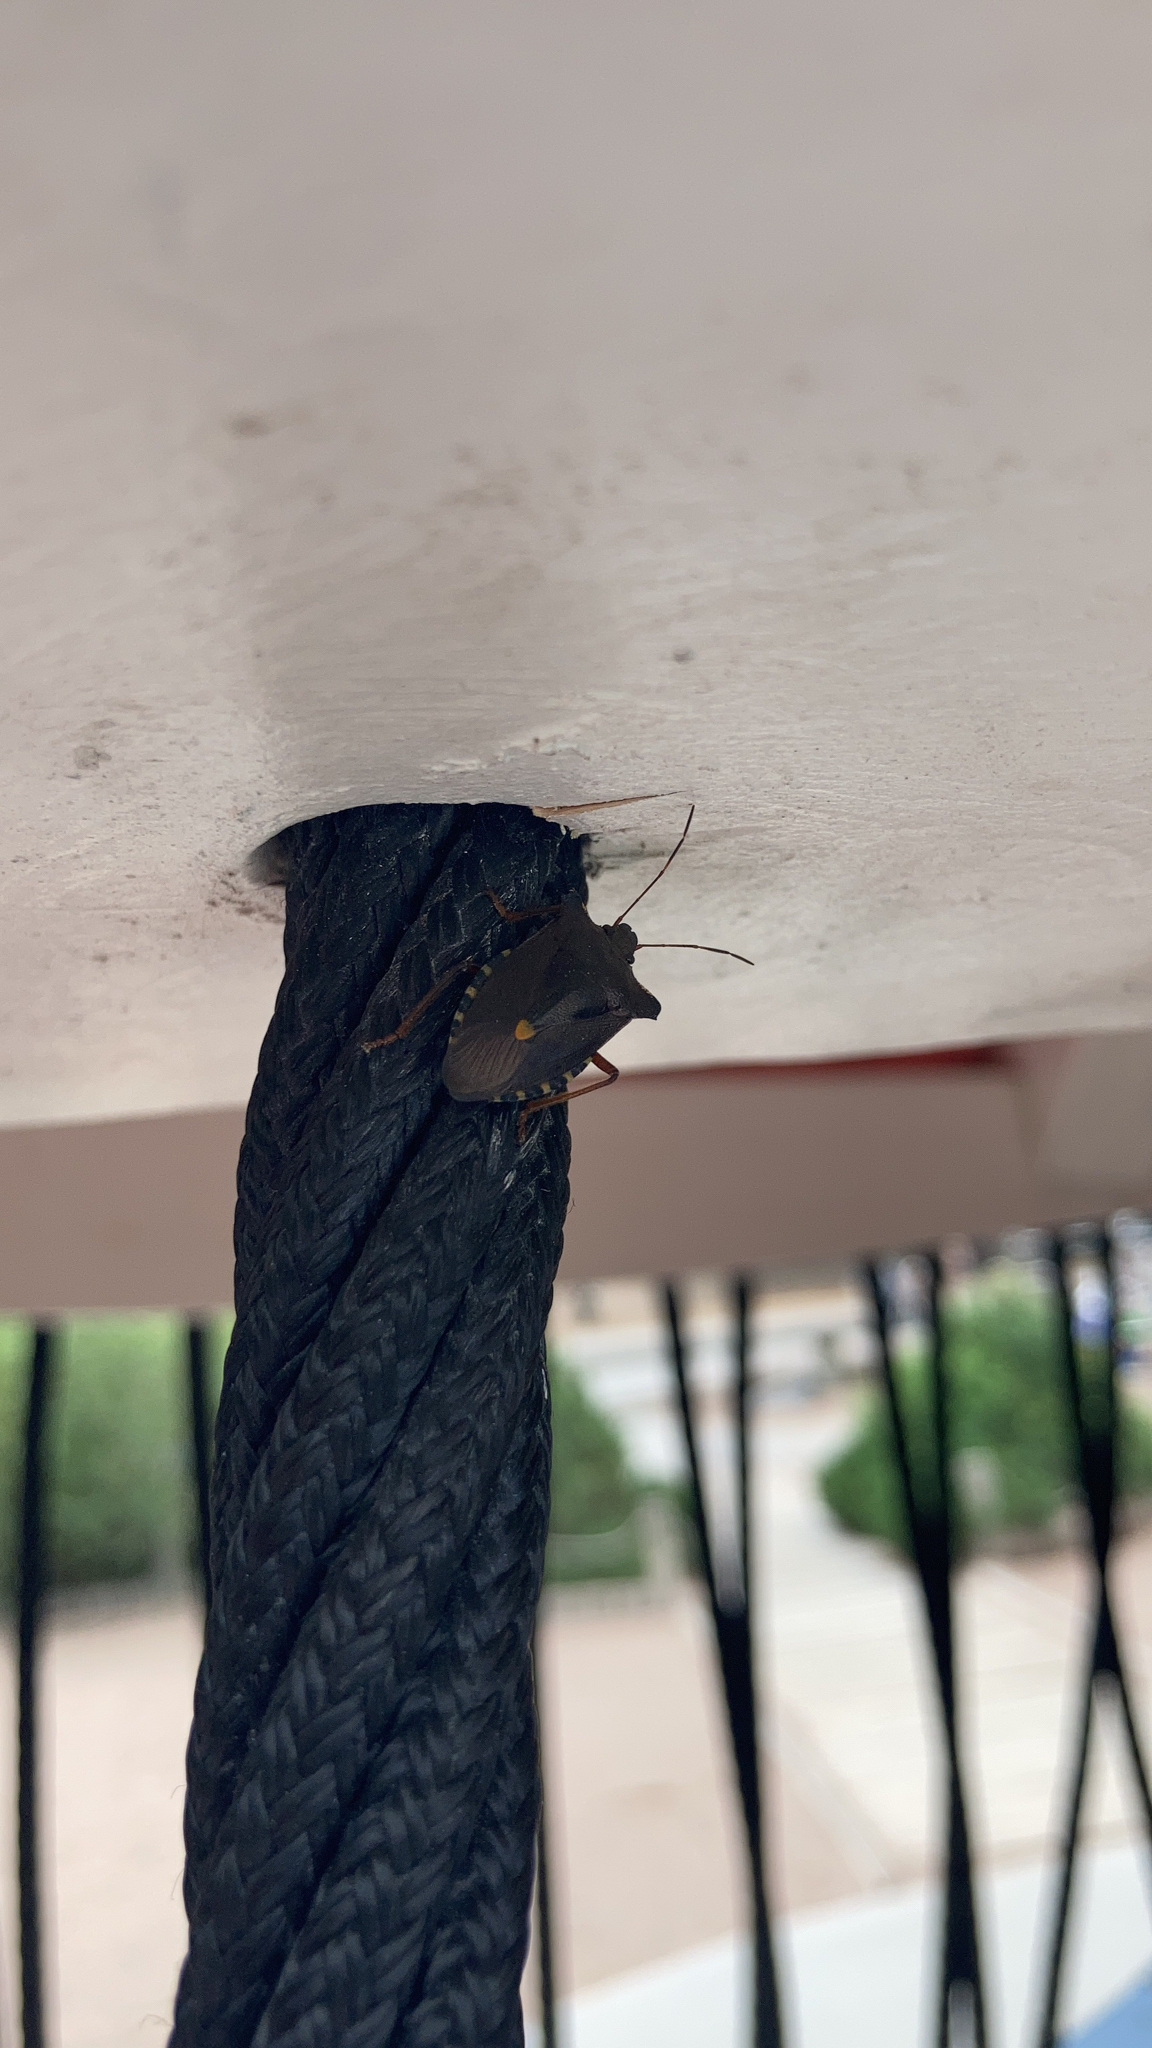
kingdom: Animalia
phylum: Arthropoda
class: Insecta
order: Hemiptera
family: Pentatomidae
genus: Pentatoma
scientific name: Pentatoma rufipes
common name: Forest bug
